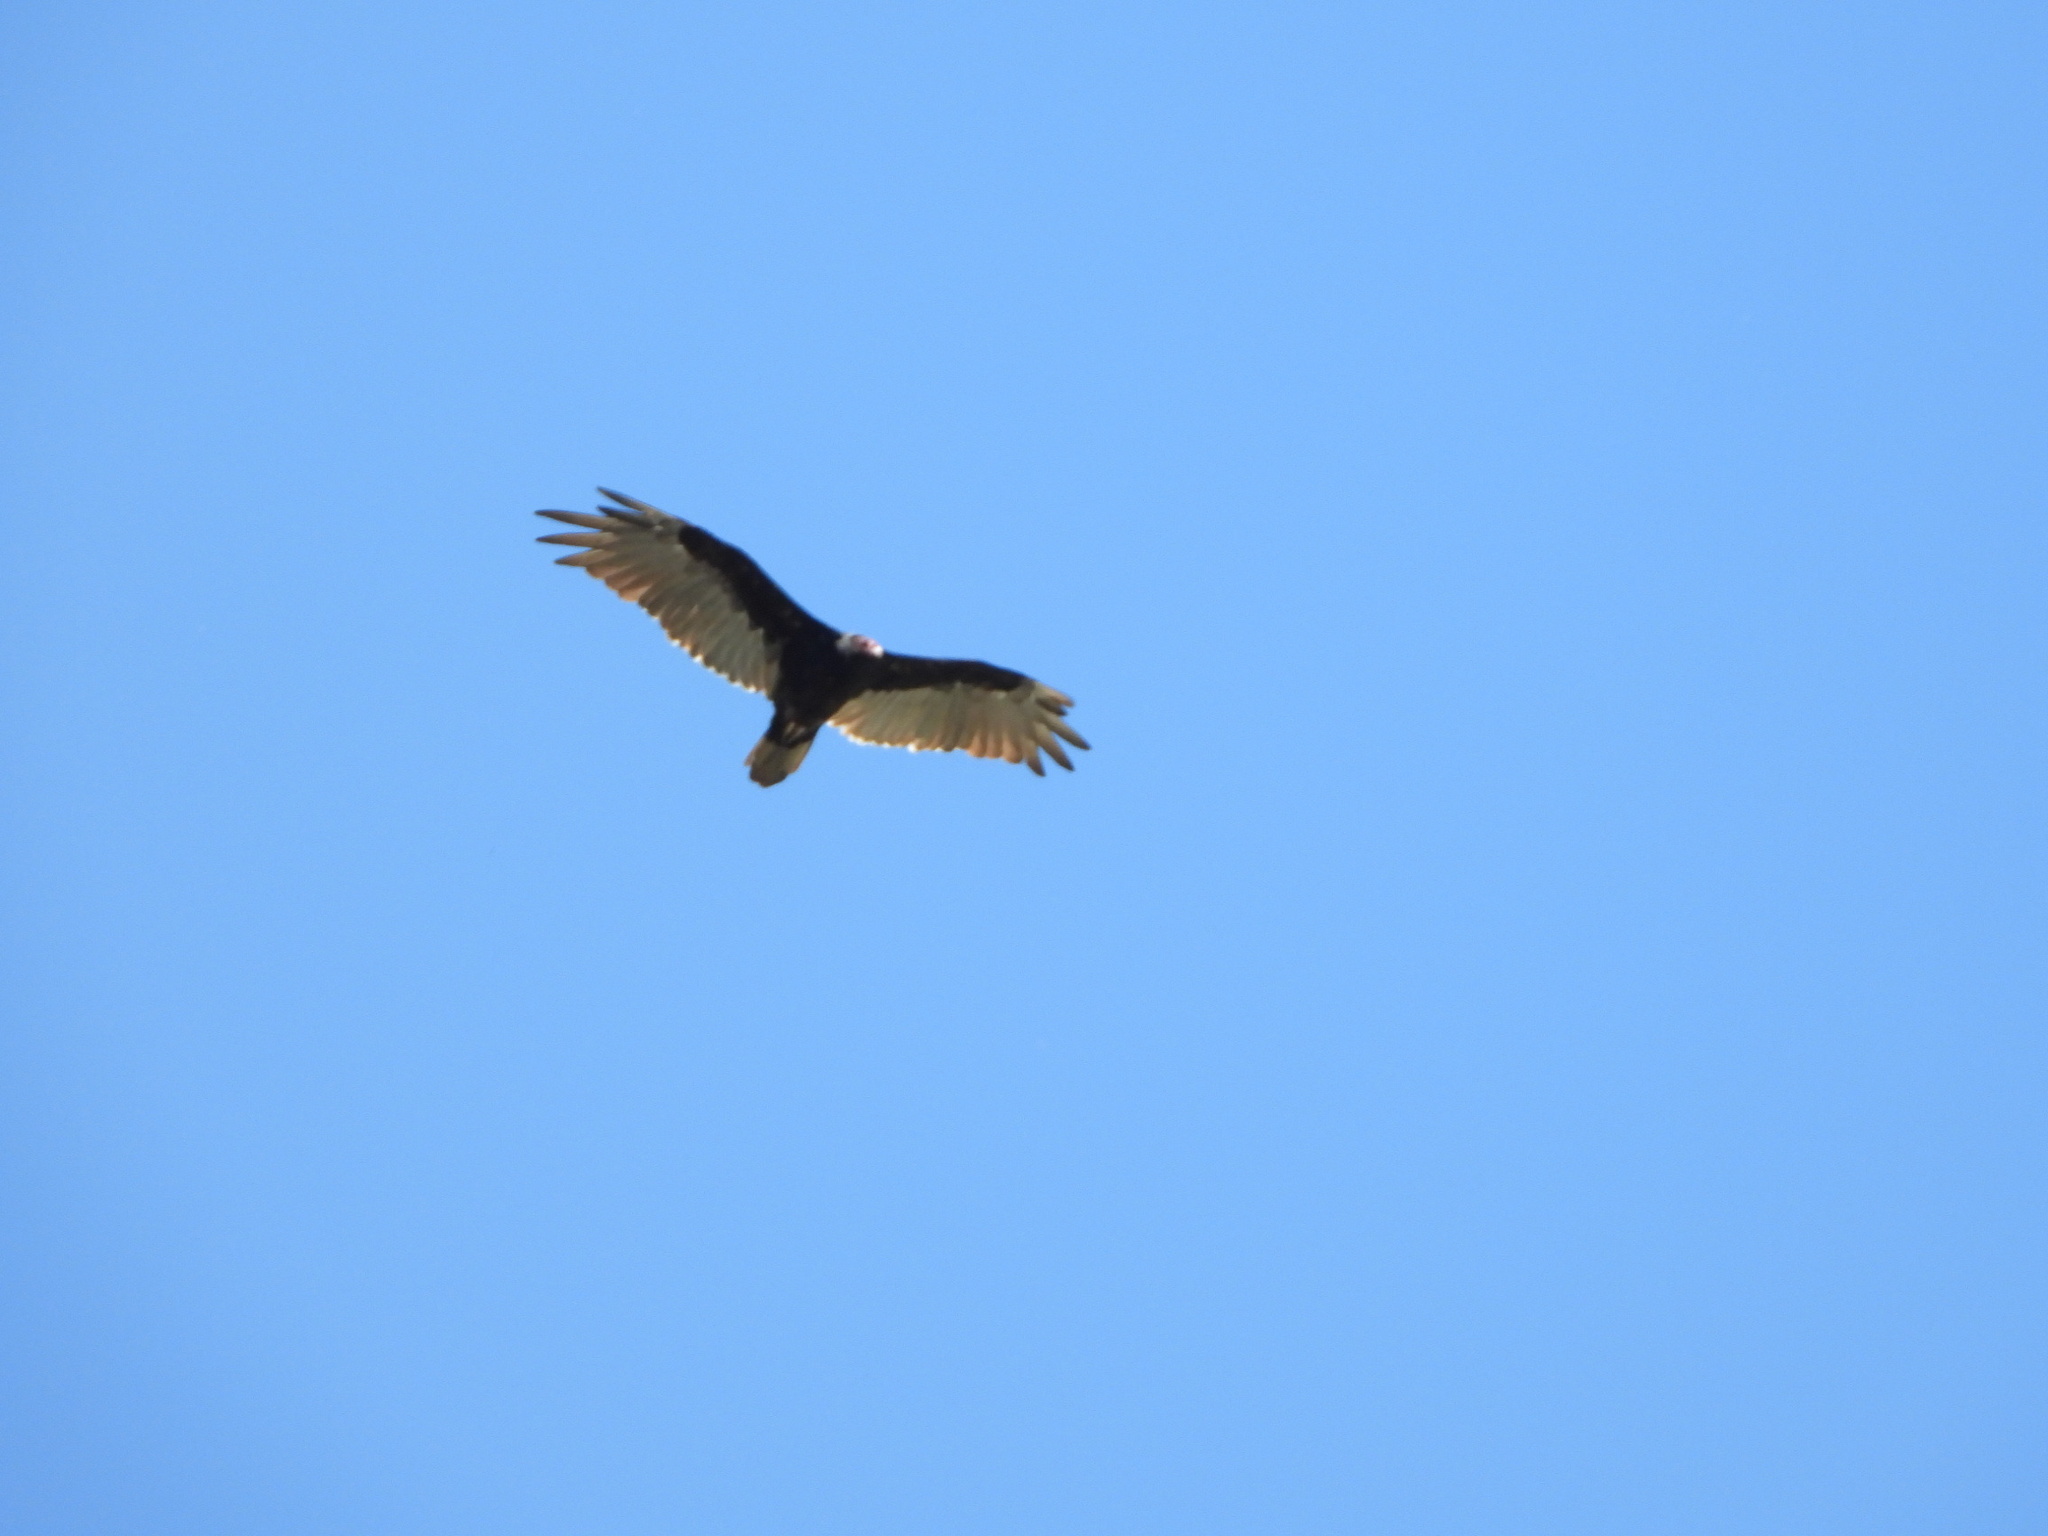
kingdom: Animalia
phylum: Chordata
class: Aves
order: Accipitriformes
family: Cathartidae
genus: Cathartes
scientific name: Cathartes aura
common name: Turkey vulture
